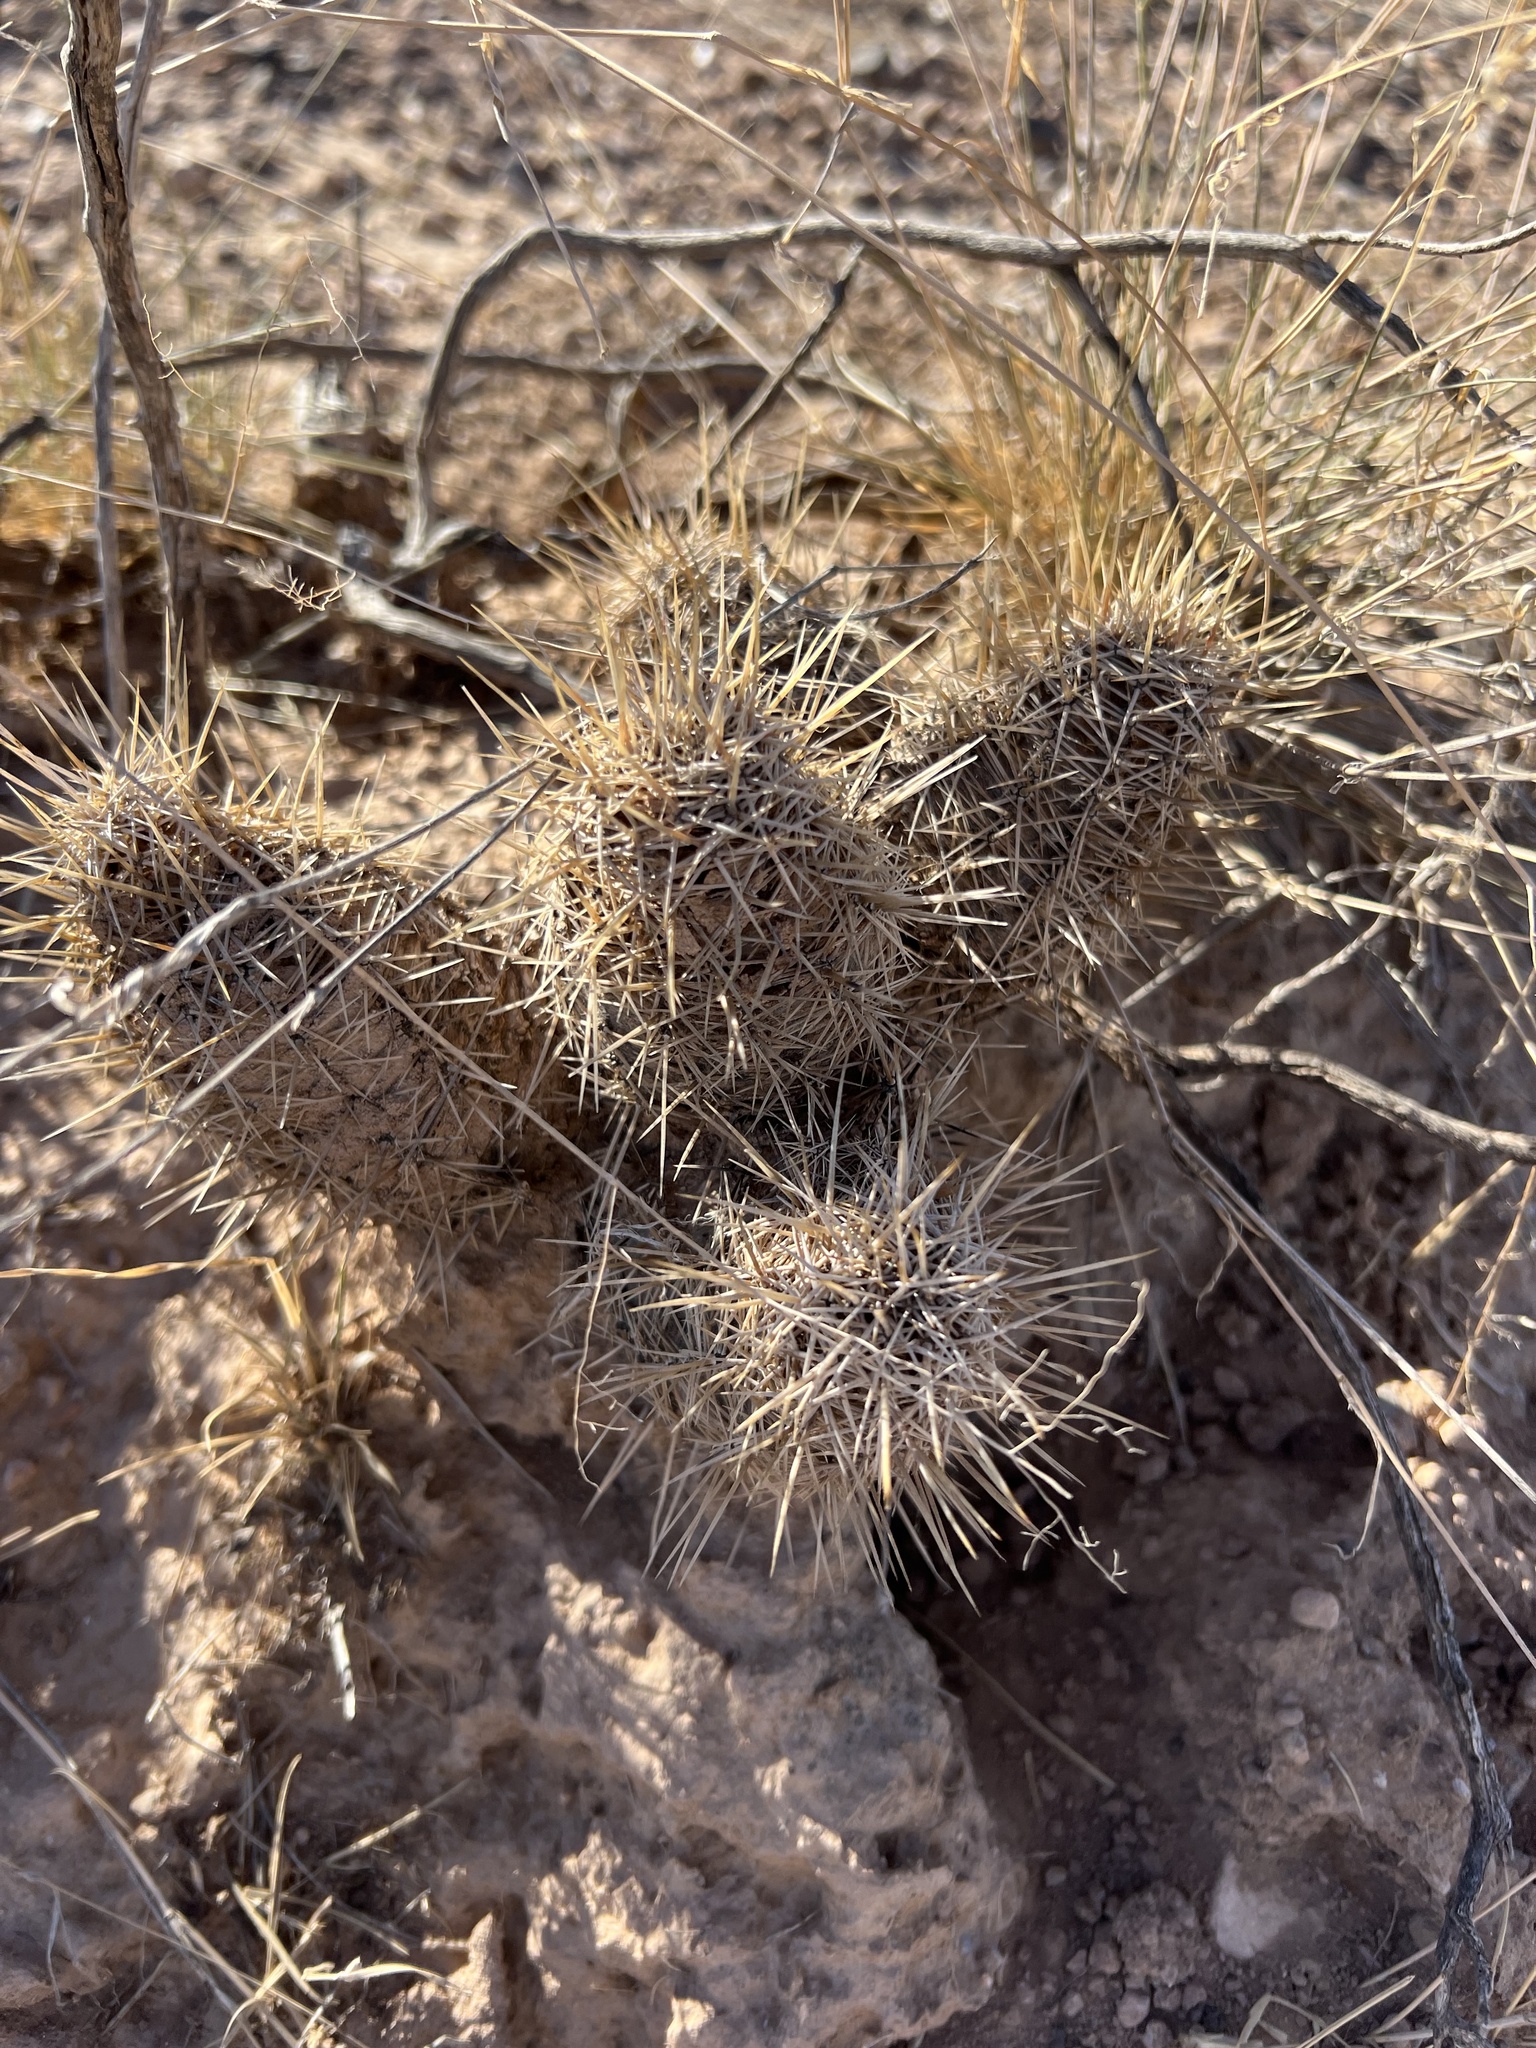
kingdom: Plantae
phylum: Tracheophyta
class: Magnoliopsida
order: Caryophyllales
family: Cactaceae
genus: Echinocereus
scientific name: Echinocereus fendleri
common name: Fendler's hedgehog cactus
